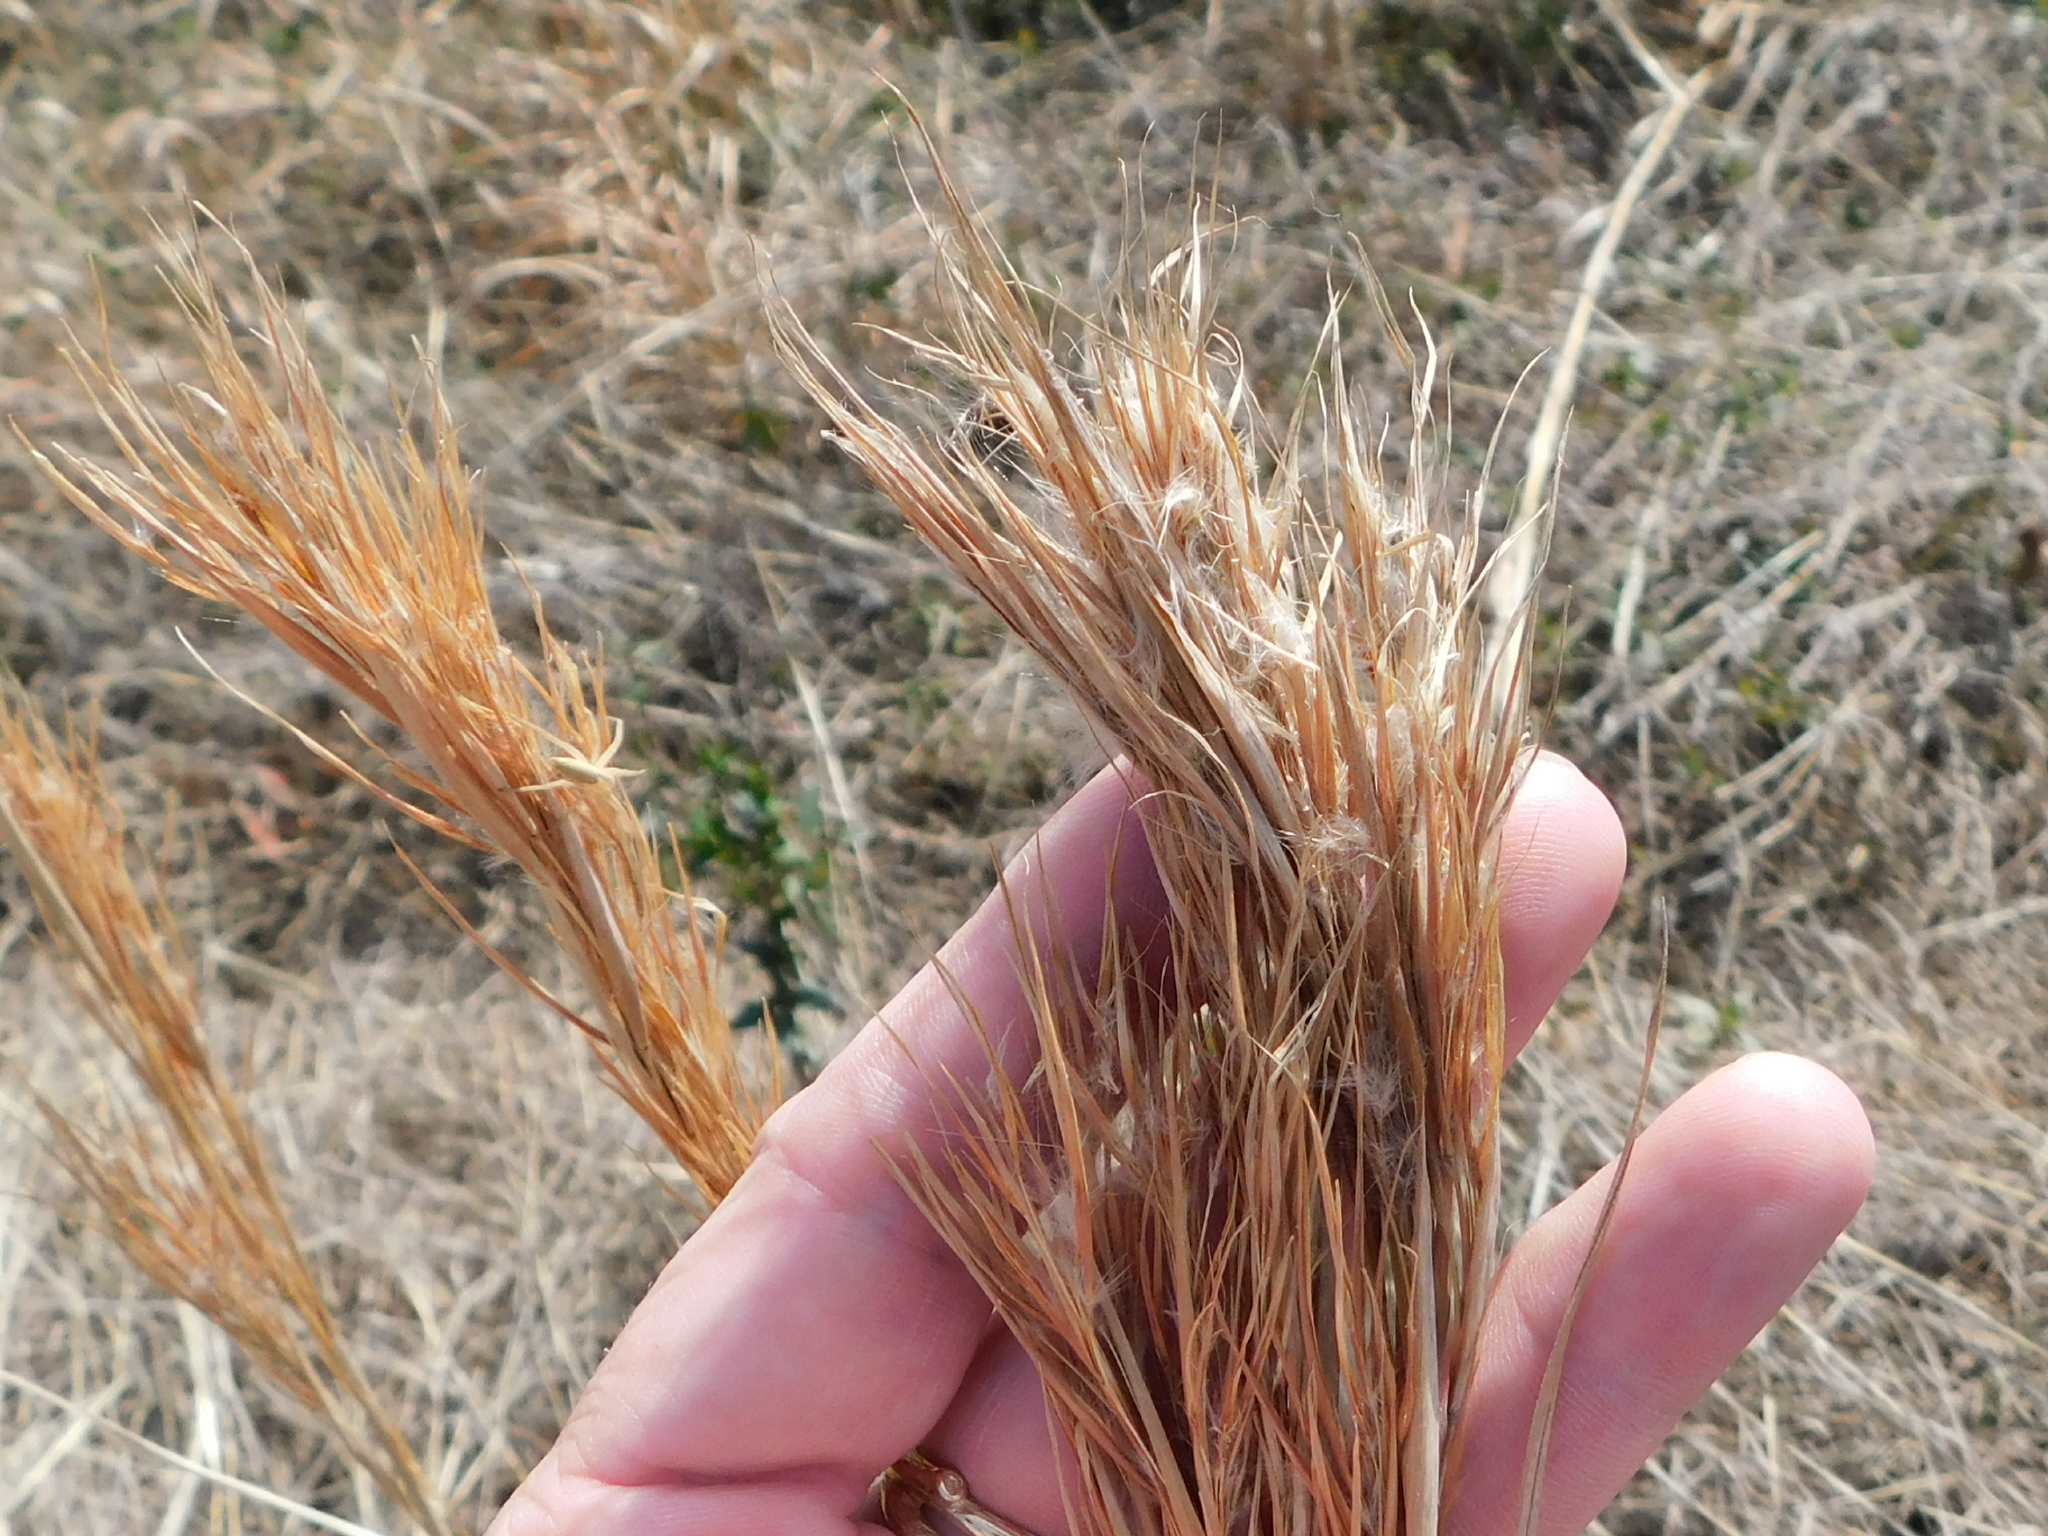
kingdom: Plantae
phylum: Tracheophyta
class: Liliopsida
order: Poales
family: Poaceae
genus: Andropogon
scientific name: Andropogon tenuispatheus
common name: Bushy bluestem
